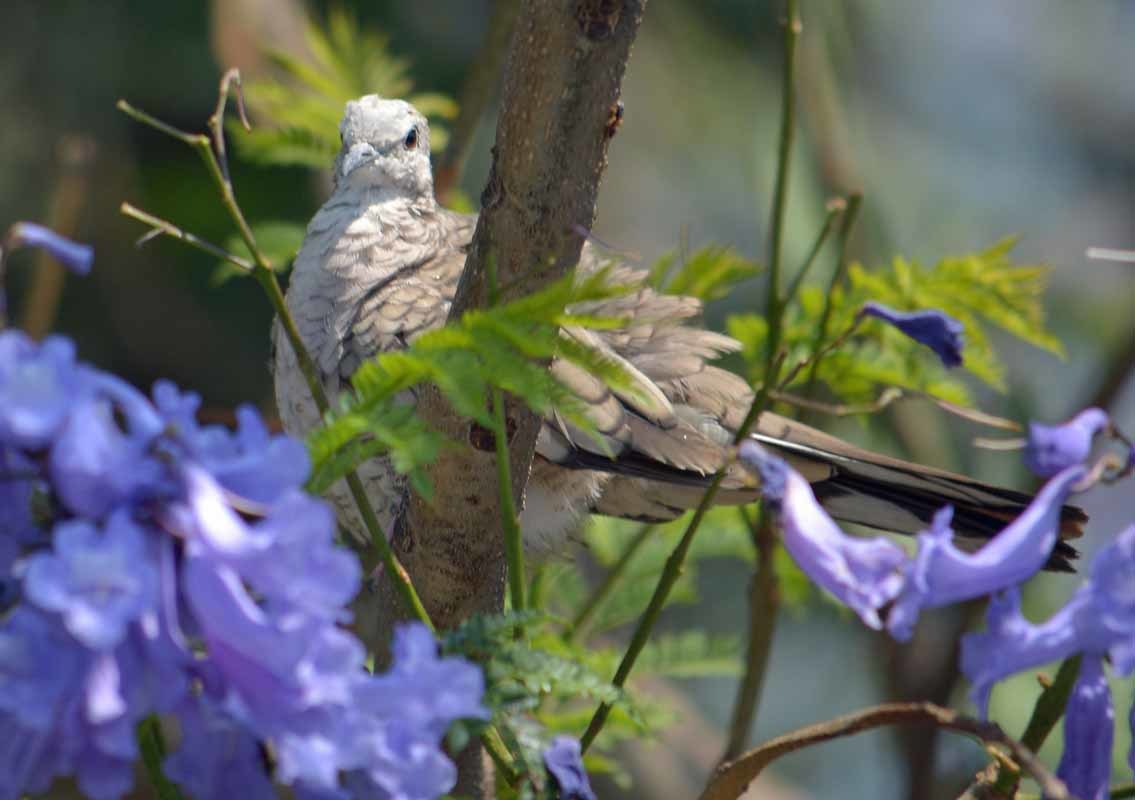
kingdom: Animalia
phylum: Chordata
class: Aves
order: Columbiformes
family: Columbidae
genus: Columbina
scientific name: Columbina inca
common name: Inca dove
